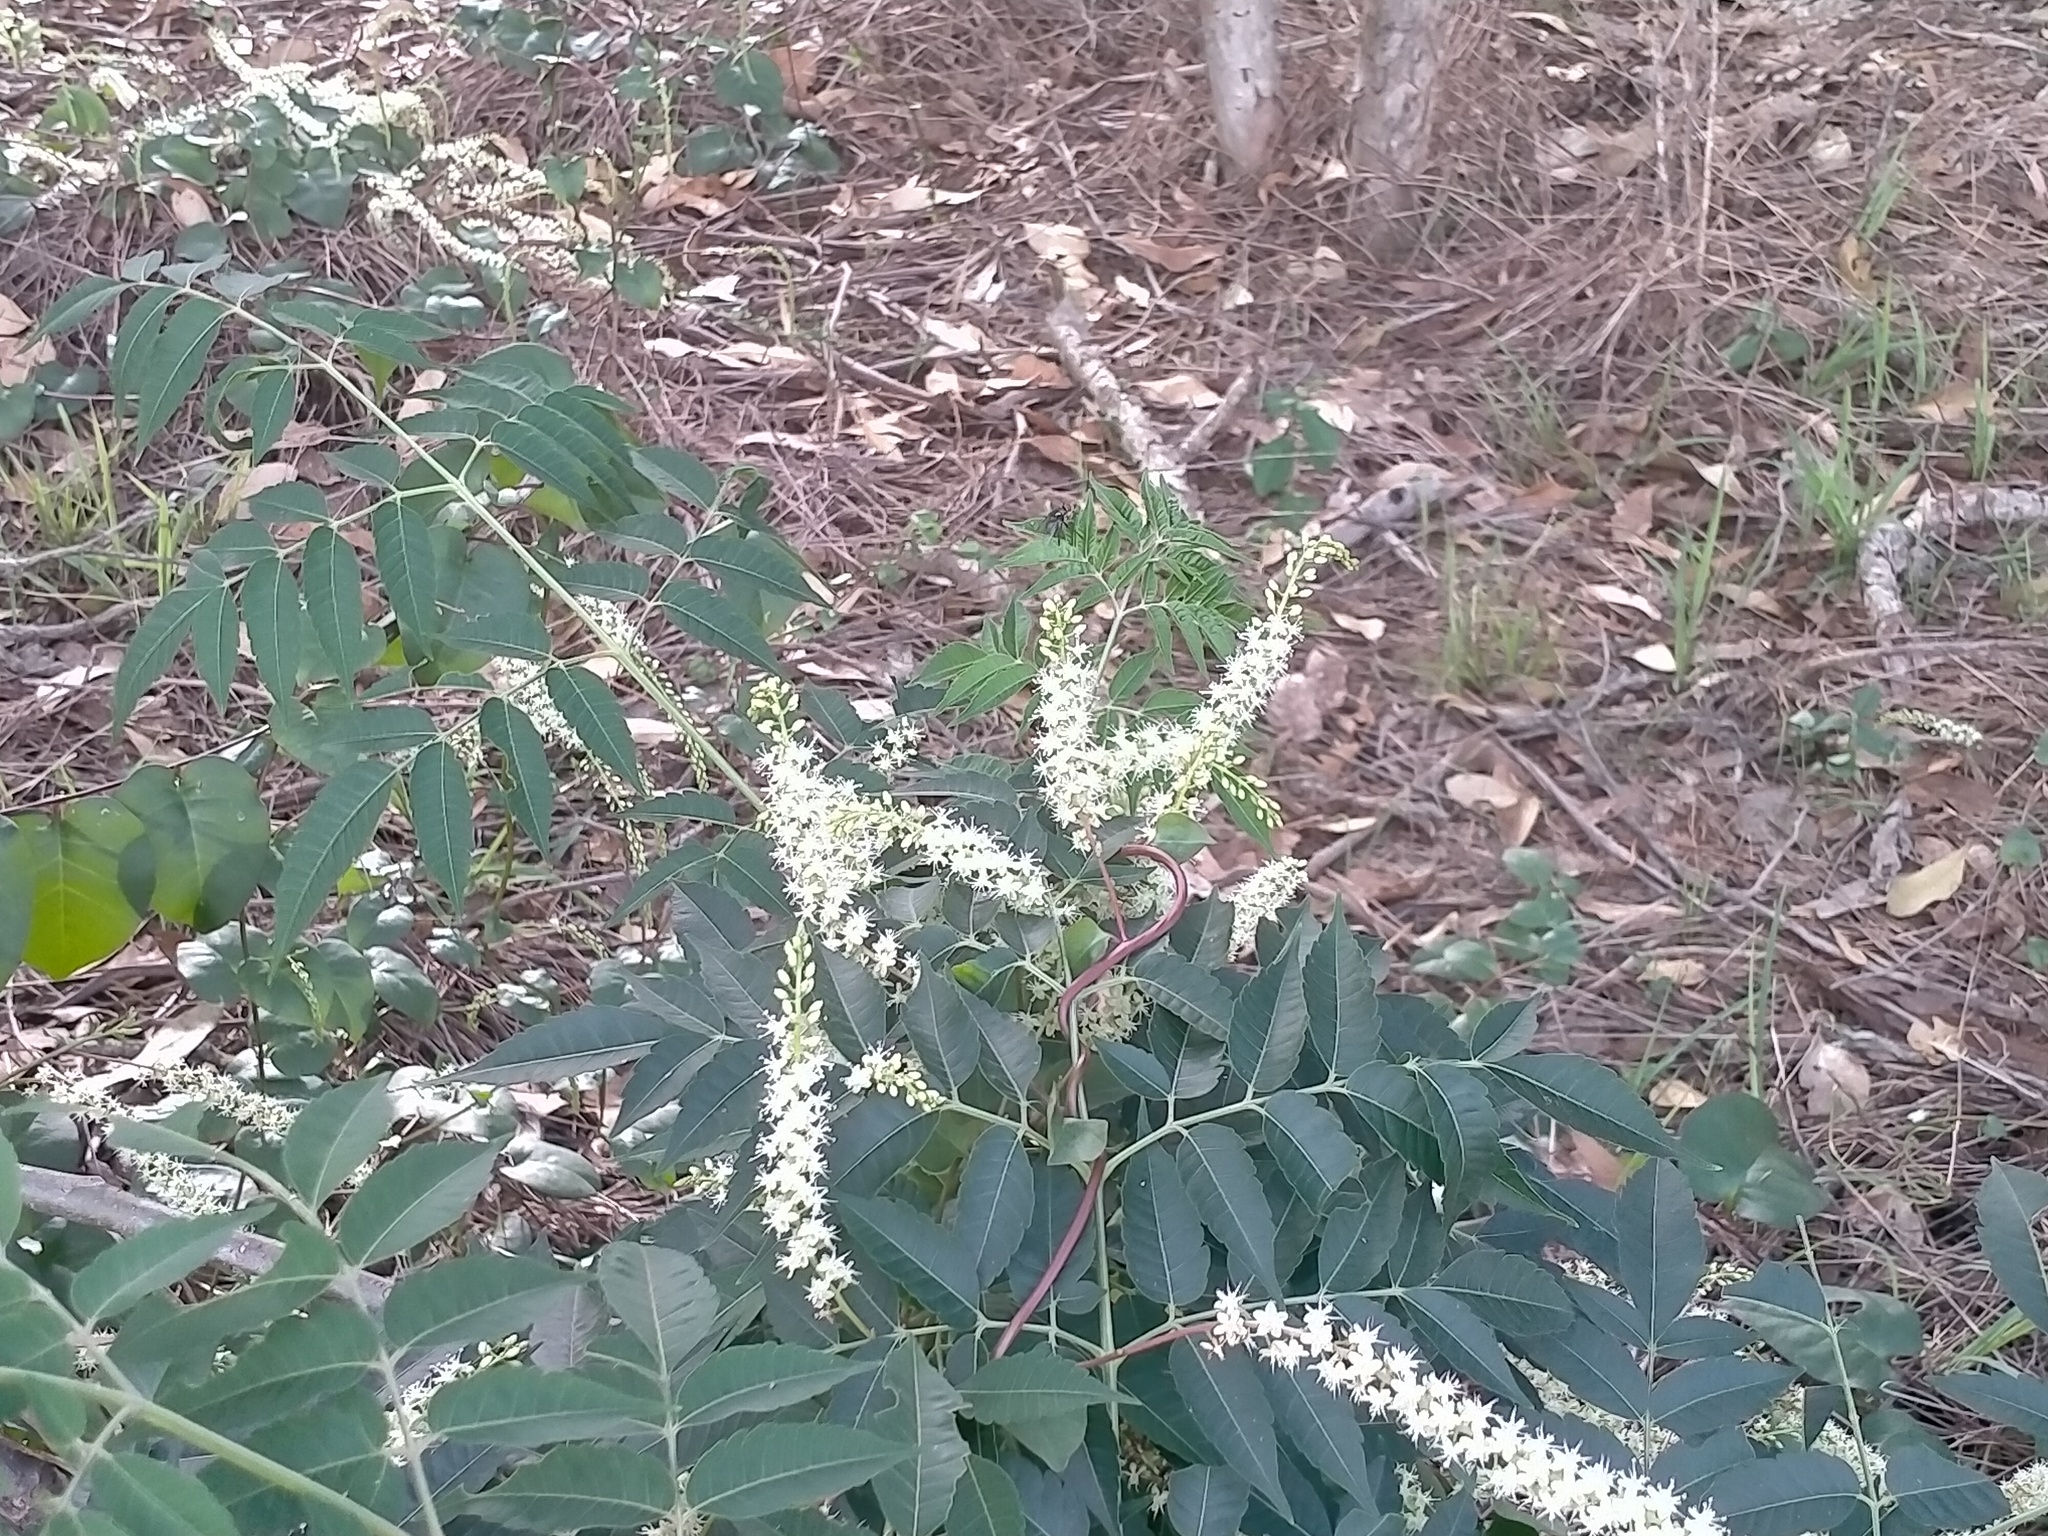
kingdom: Plantae
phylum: Tracheophyta
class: Magnoliopsida
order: Caryophyllales
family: Basellaceae
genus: Anredera
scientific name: Anredera cordifolia
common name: Heartleaf madeiravine
